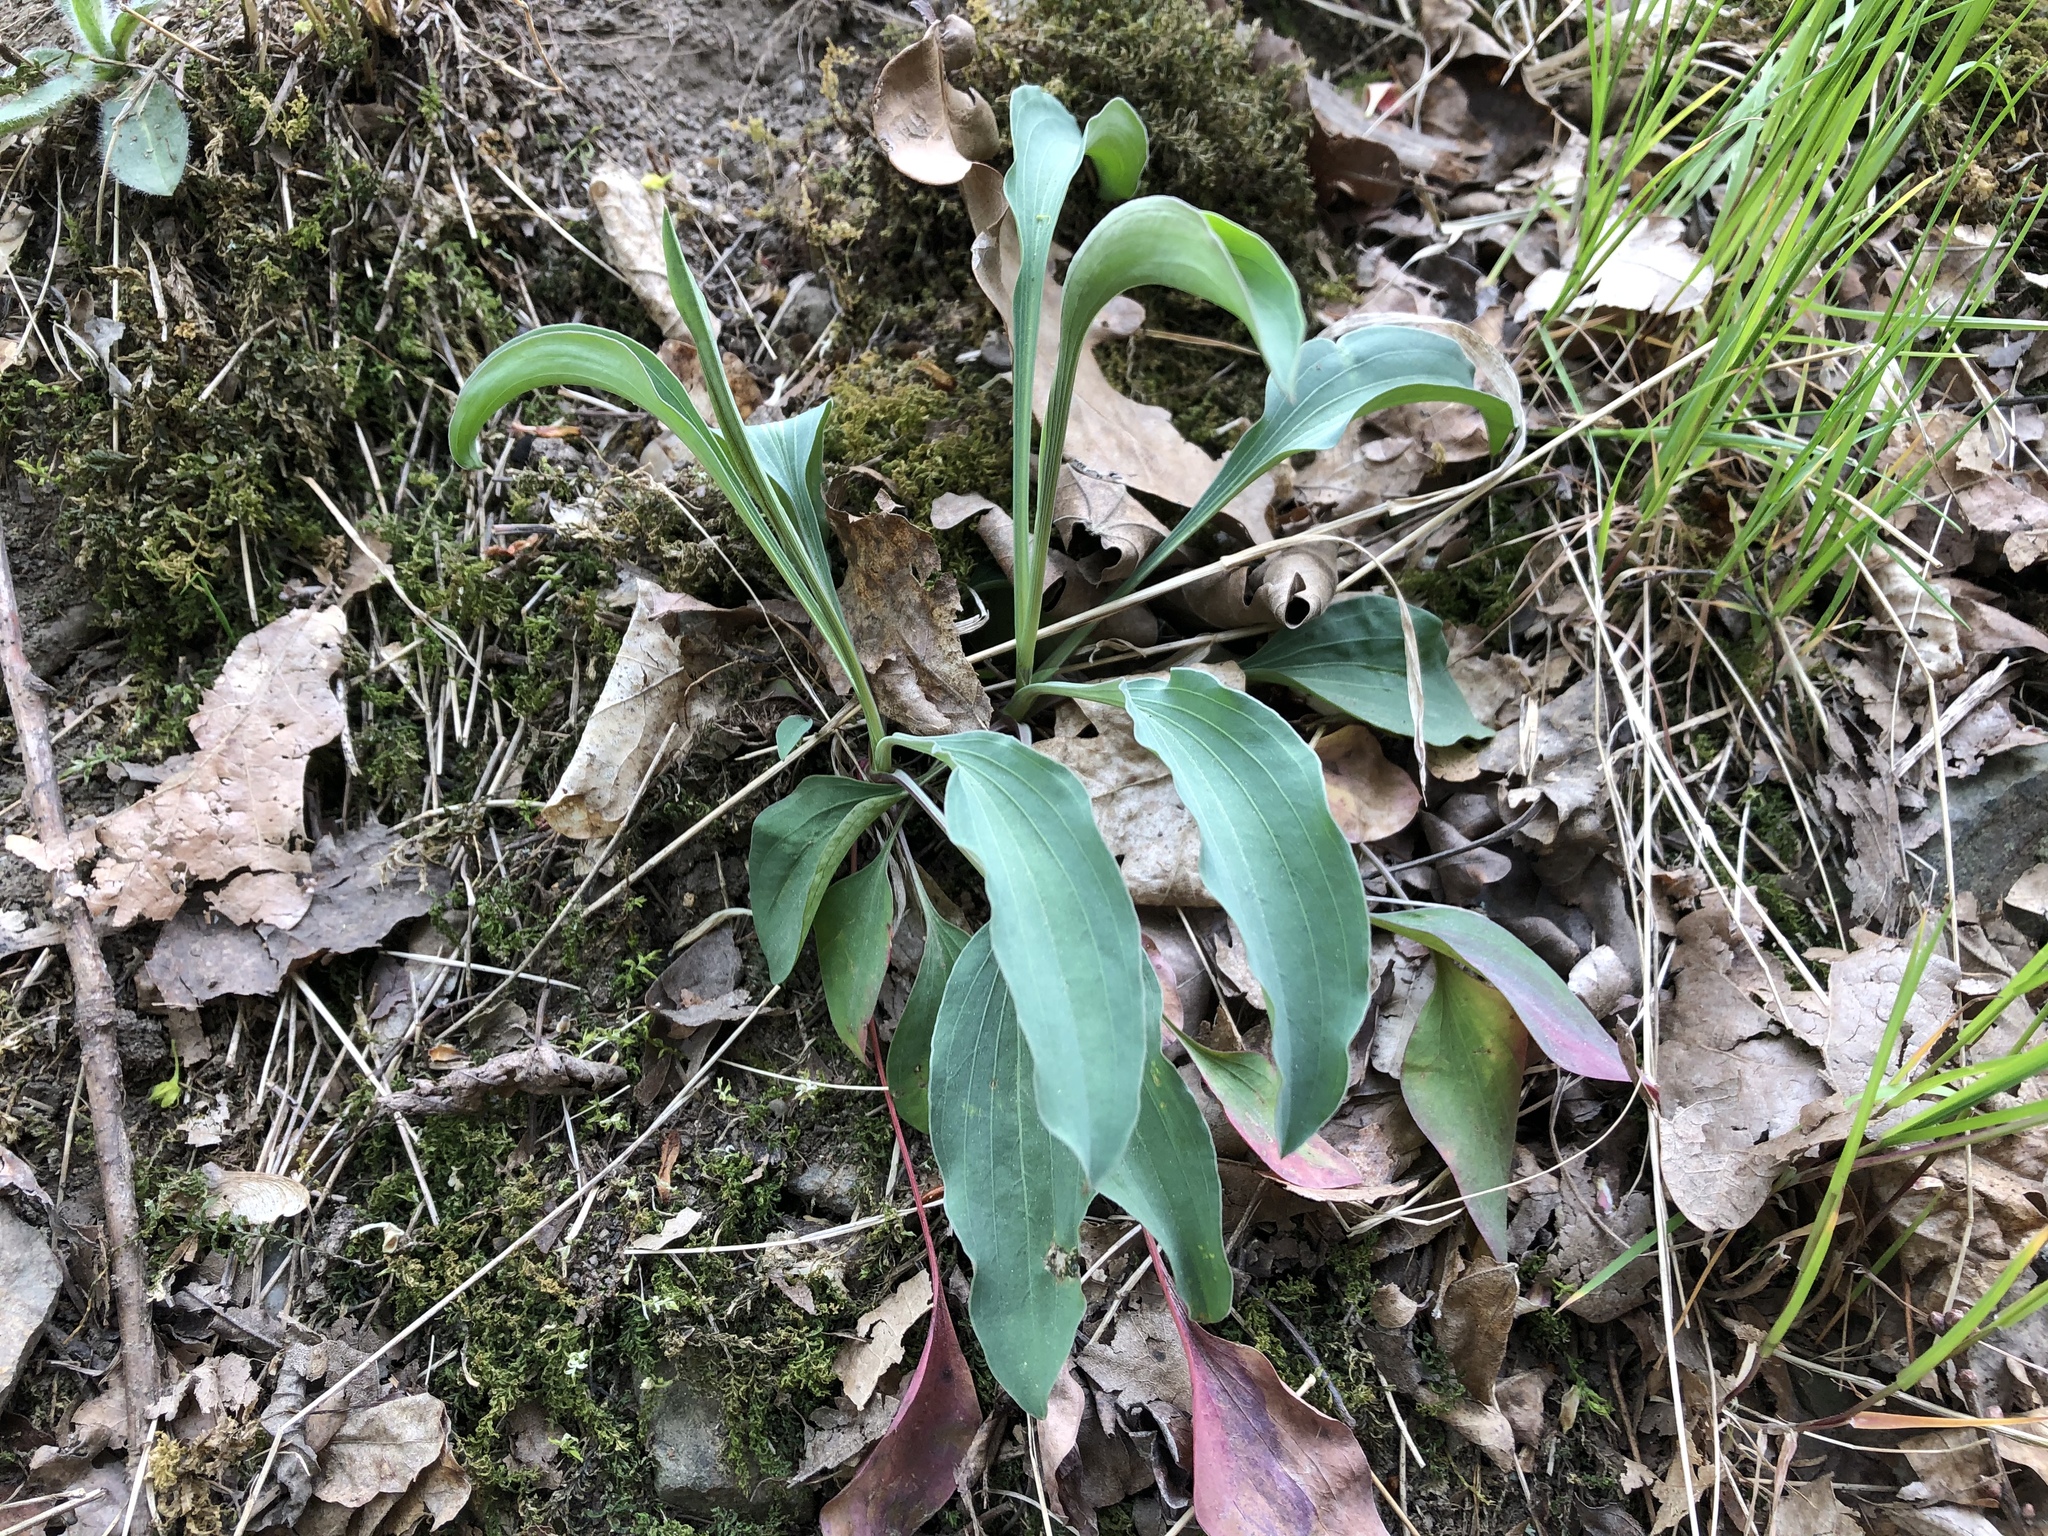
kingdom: Plantae
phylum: Tracheophyta
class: Magnoliopsida
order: Apiales
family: Apiaceae
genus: Bupleurum
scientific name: Bupleurum falcatum
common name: Sickle-leaved hare's-ear
